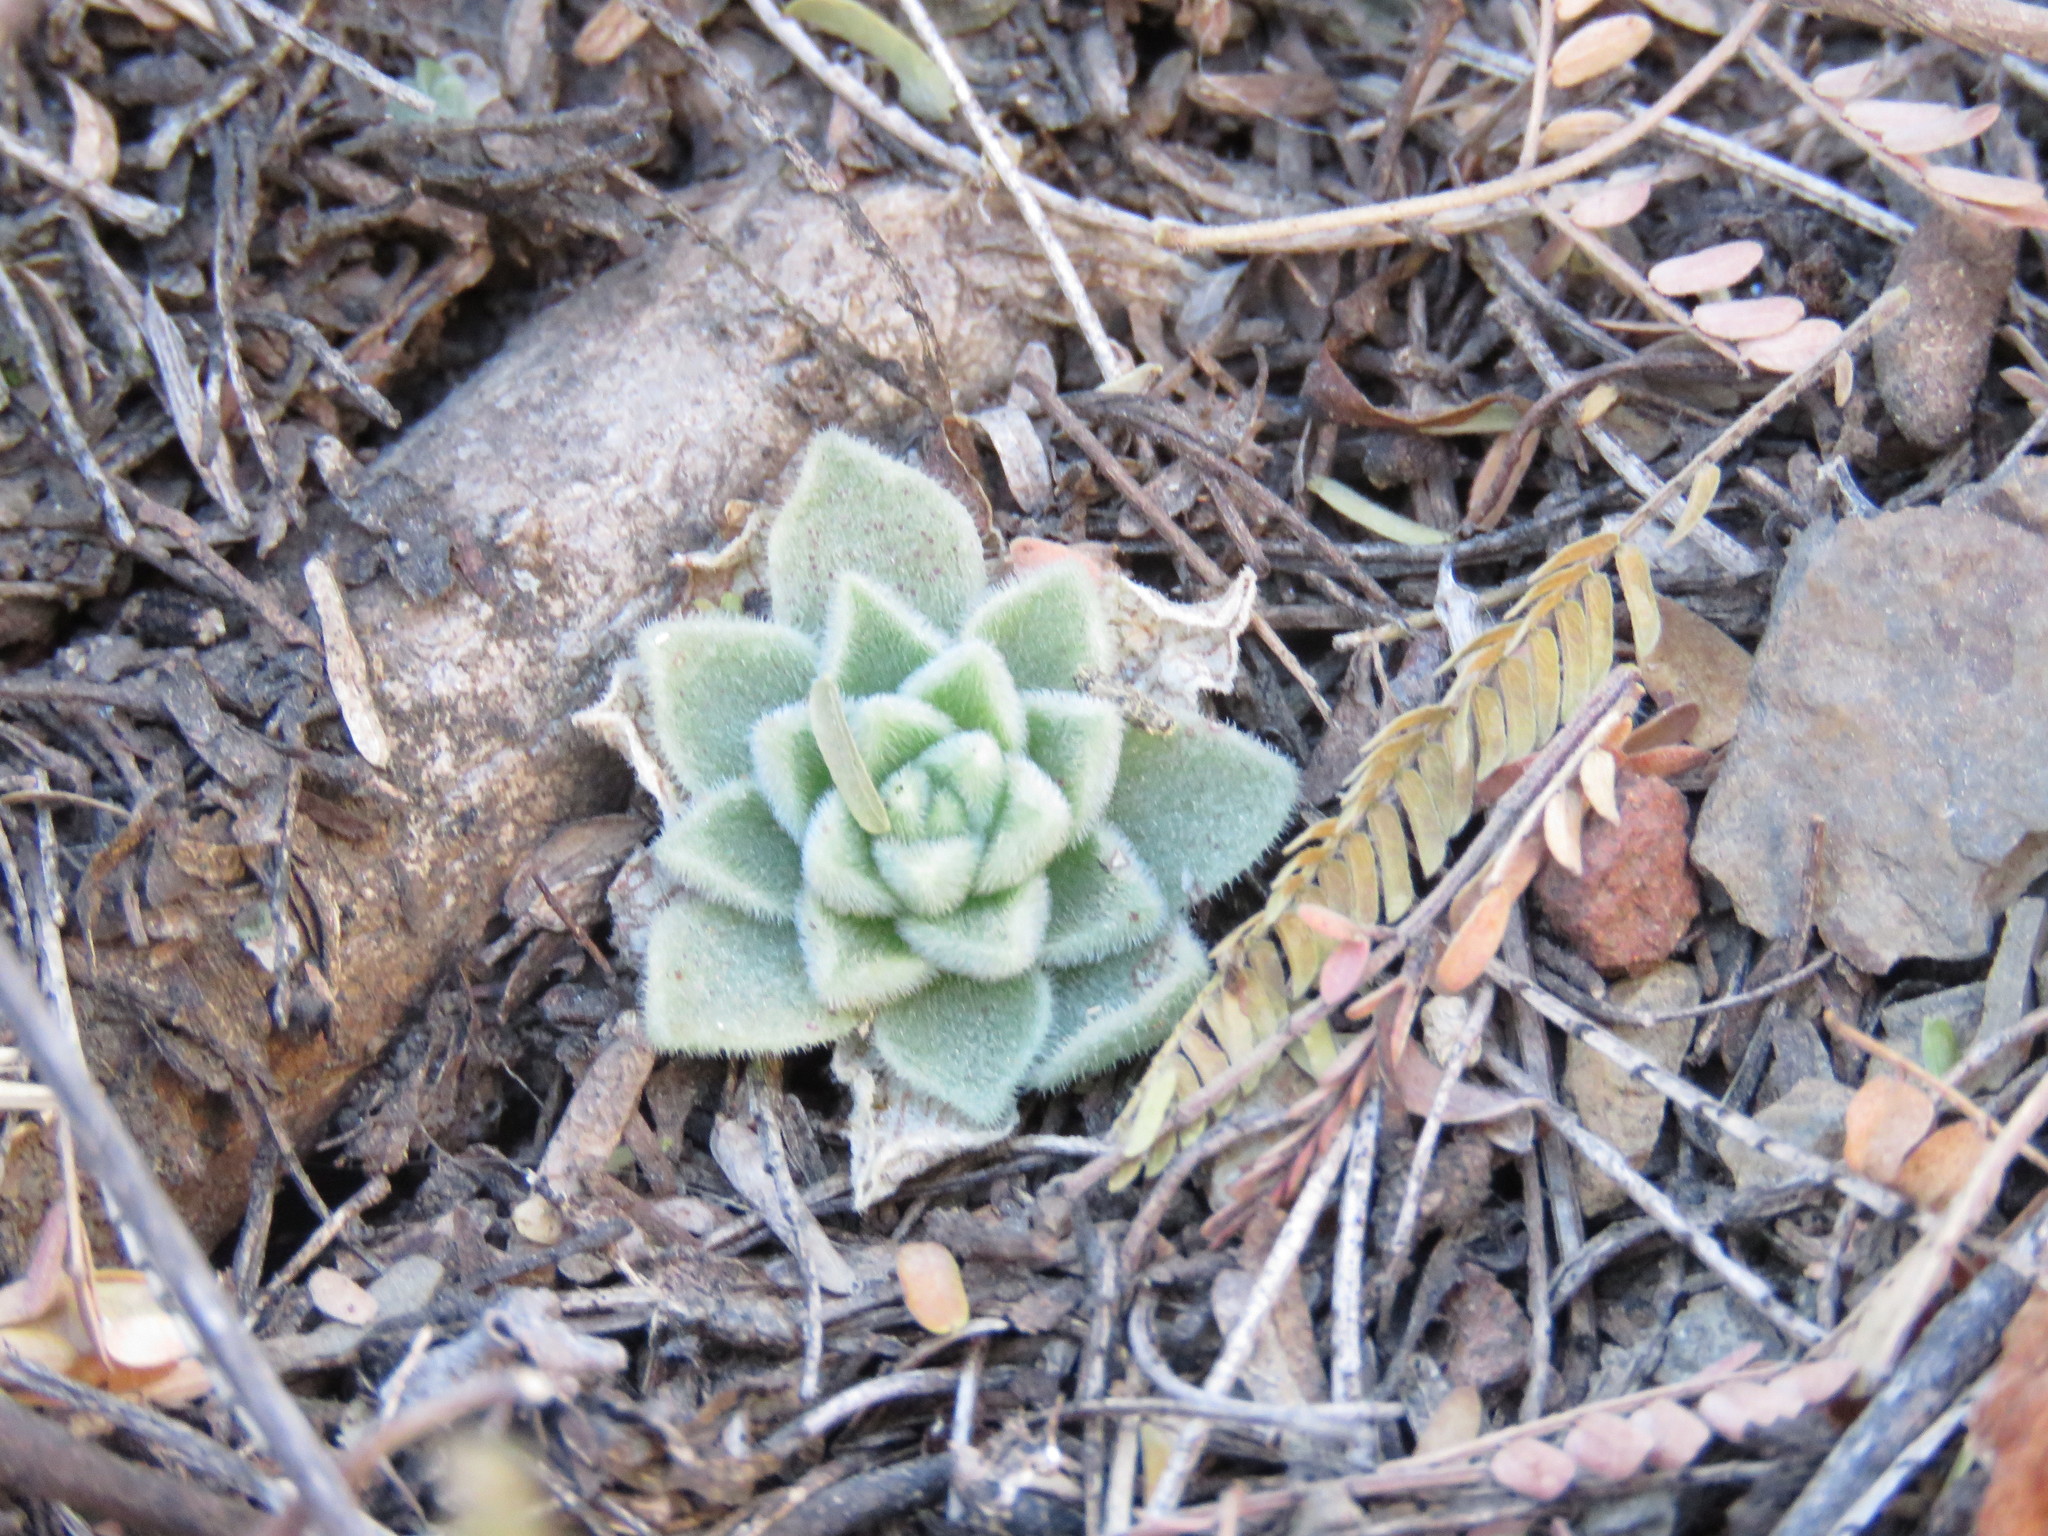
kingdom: Plantae
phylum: Tracheophyta
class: Magnoliopsida
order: Saxifragales
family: Crassulaceae
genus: Sedum
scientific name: Sedum ebracteatum
